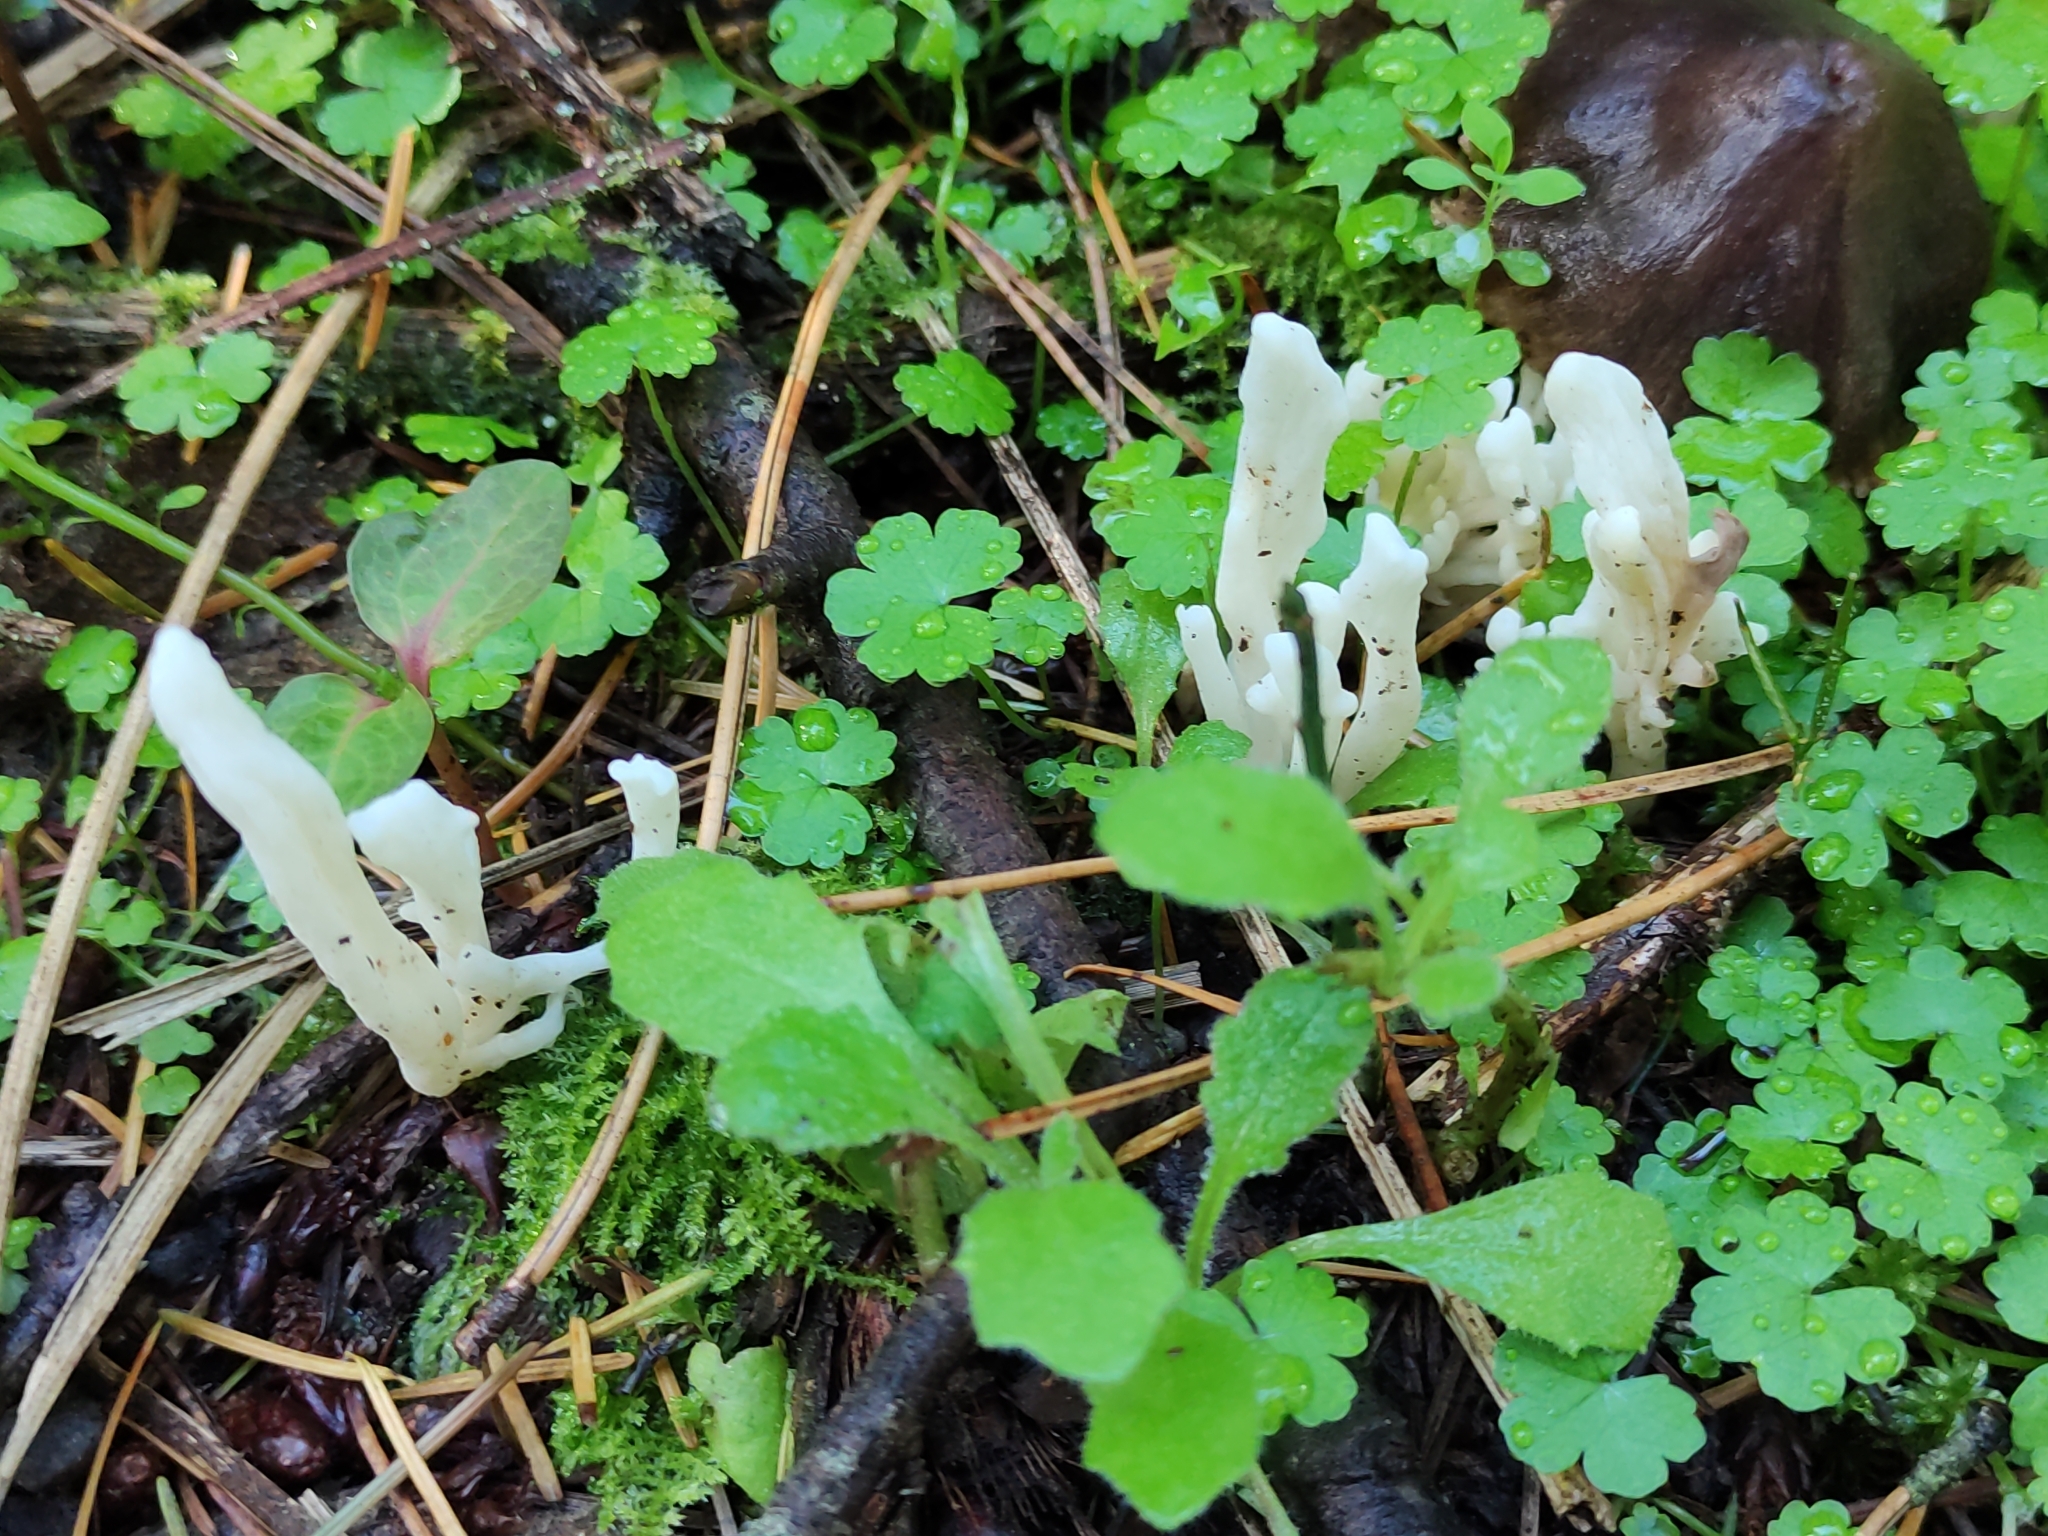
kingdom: Fungi
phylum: Basidiomycota
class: Agaricomycetes
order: Cantharellales
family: Hydnaceae
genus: Clavulina
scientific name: Clavulina rugosa
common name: Wrinkled club
